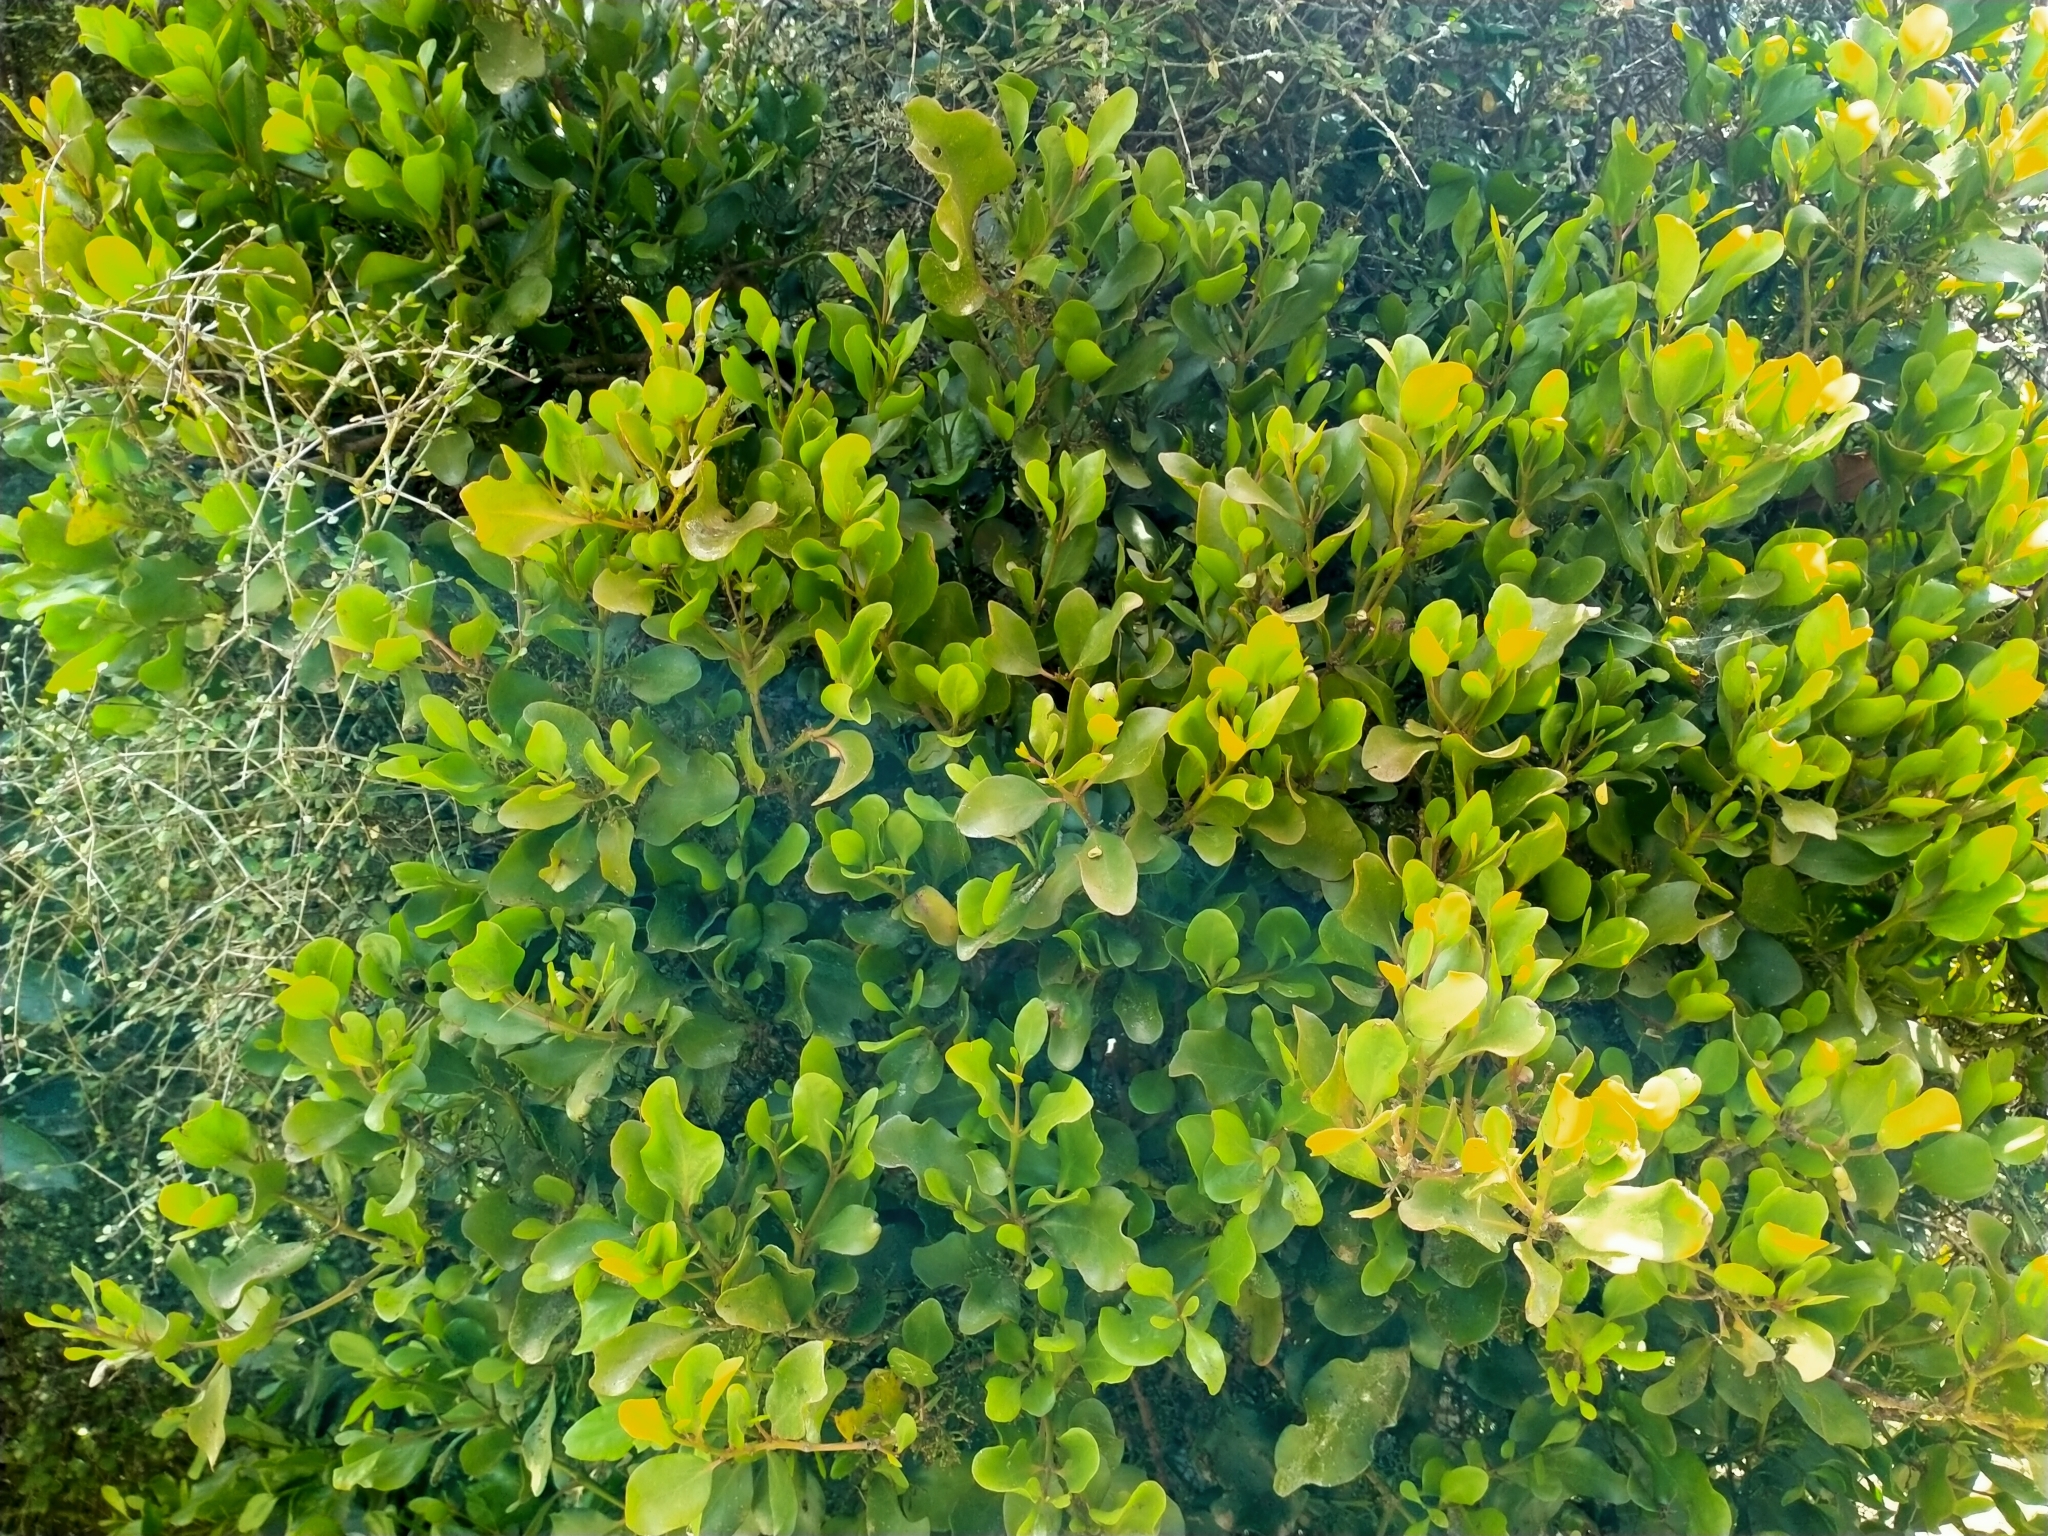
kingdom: Plantae
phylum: Tracheophyta
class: Magnoliopsida
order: Santalales
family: Loranthaceae
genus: Ileostylus
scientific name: Ileostylus micranthus
